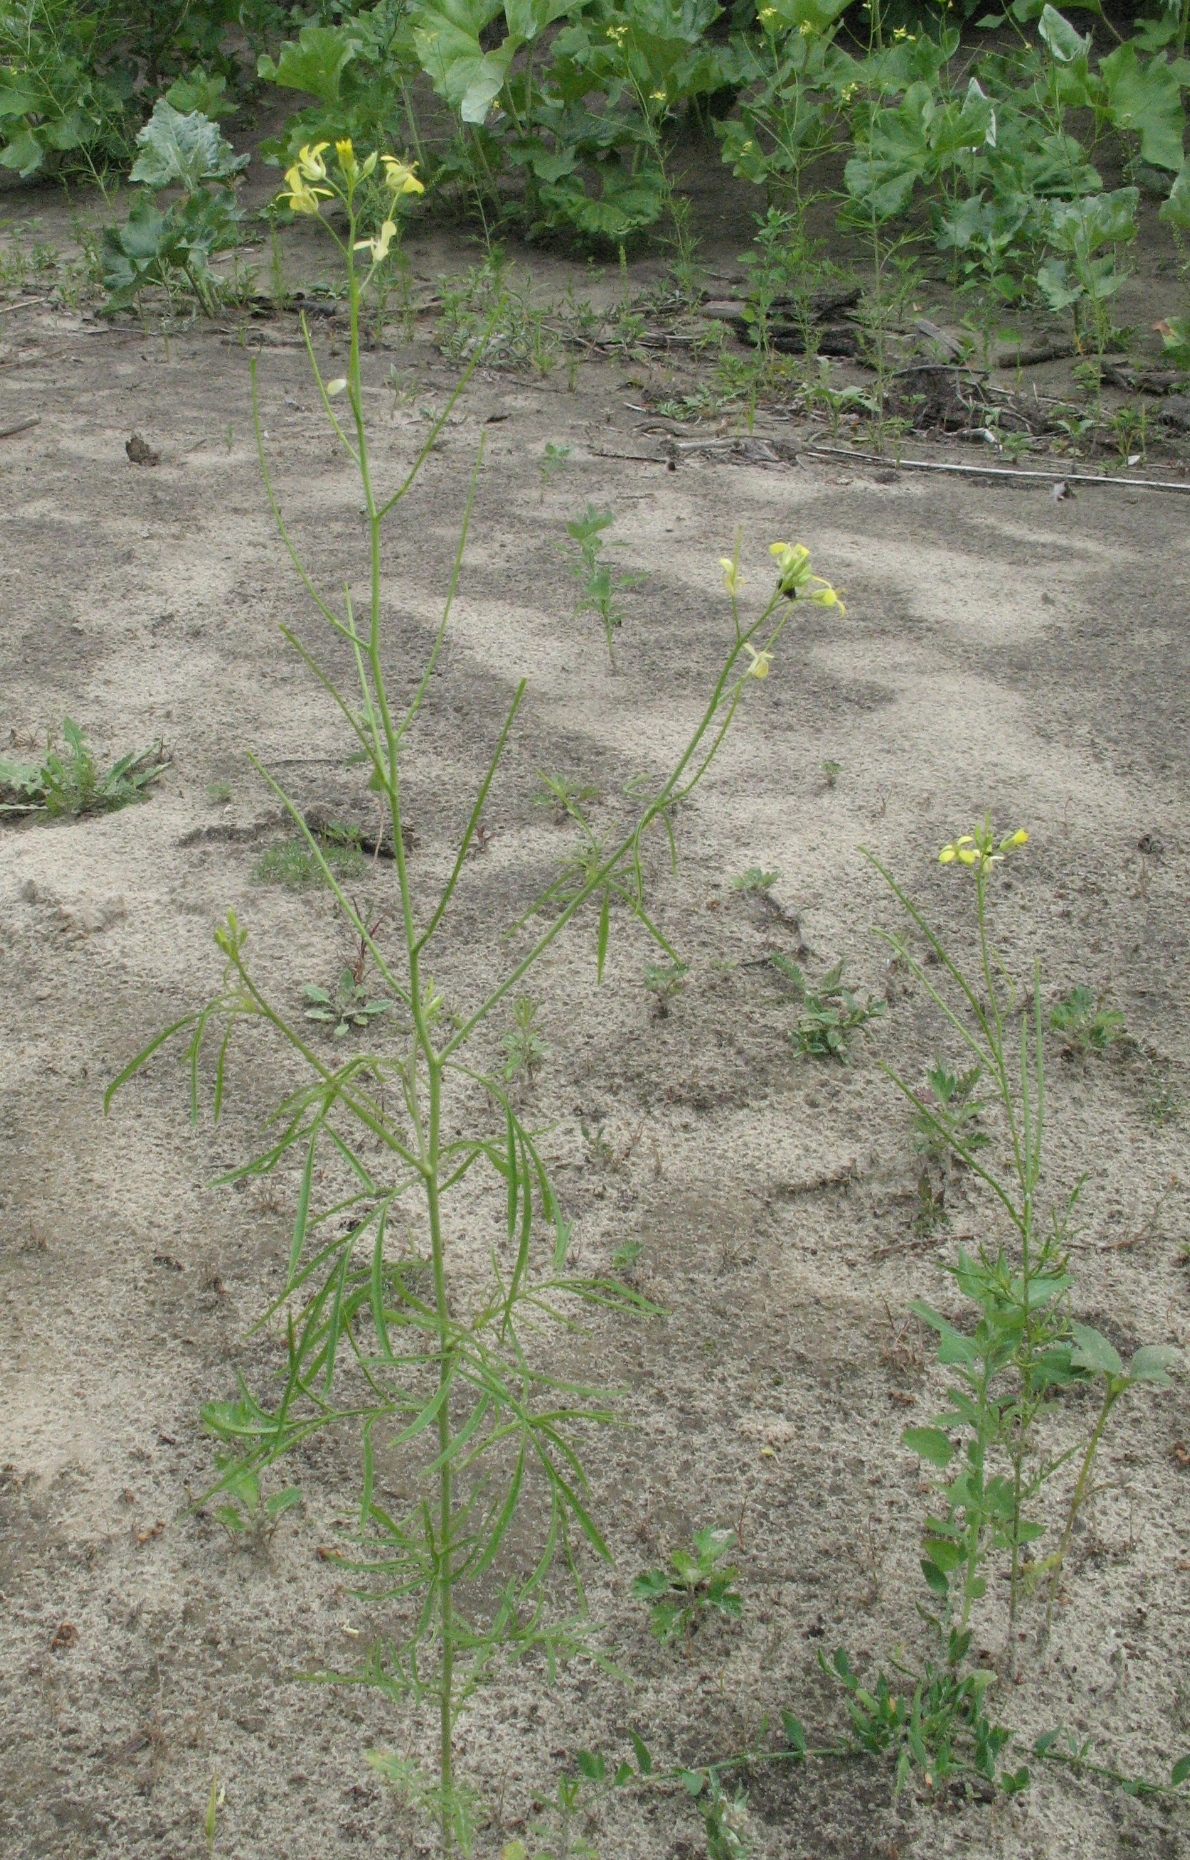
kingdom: Plantae
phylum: Tracheophyta
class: Magnoliopsida
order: Brassicales
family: Brassicaceae
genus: Sisymbrium
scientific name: Sisymbrium altissimum
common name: Tall rocket
